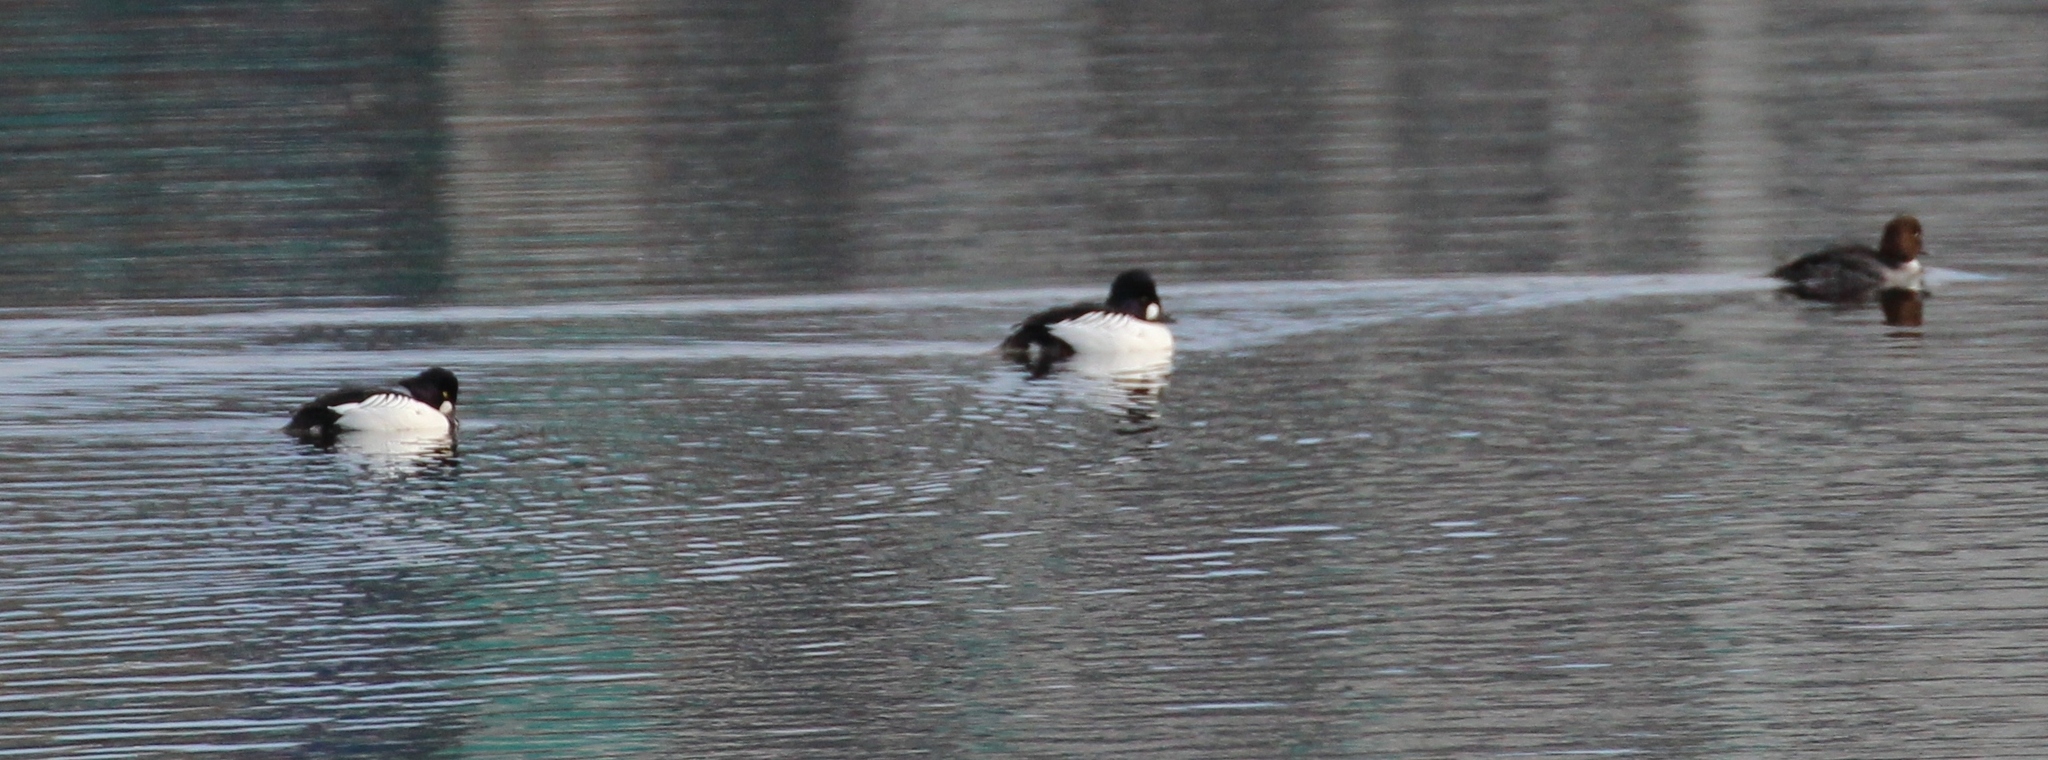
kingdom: Animalia
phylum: Chordata
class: Aves
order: Anseriformes
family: Anatidae
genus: Bucephala
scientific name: Bucephala clangula
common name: Common goldeneye
